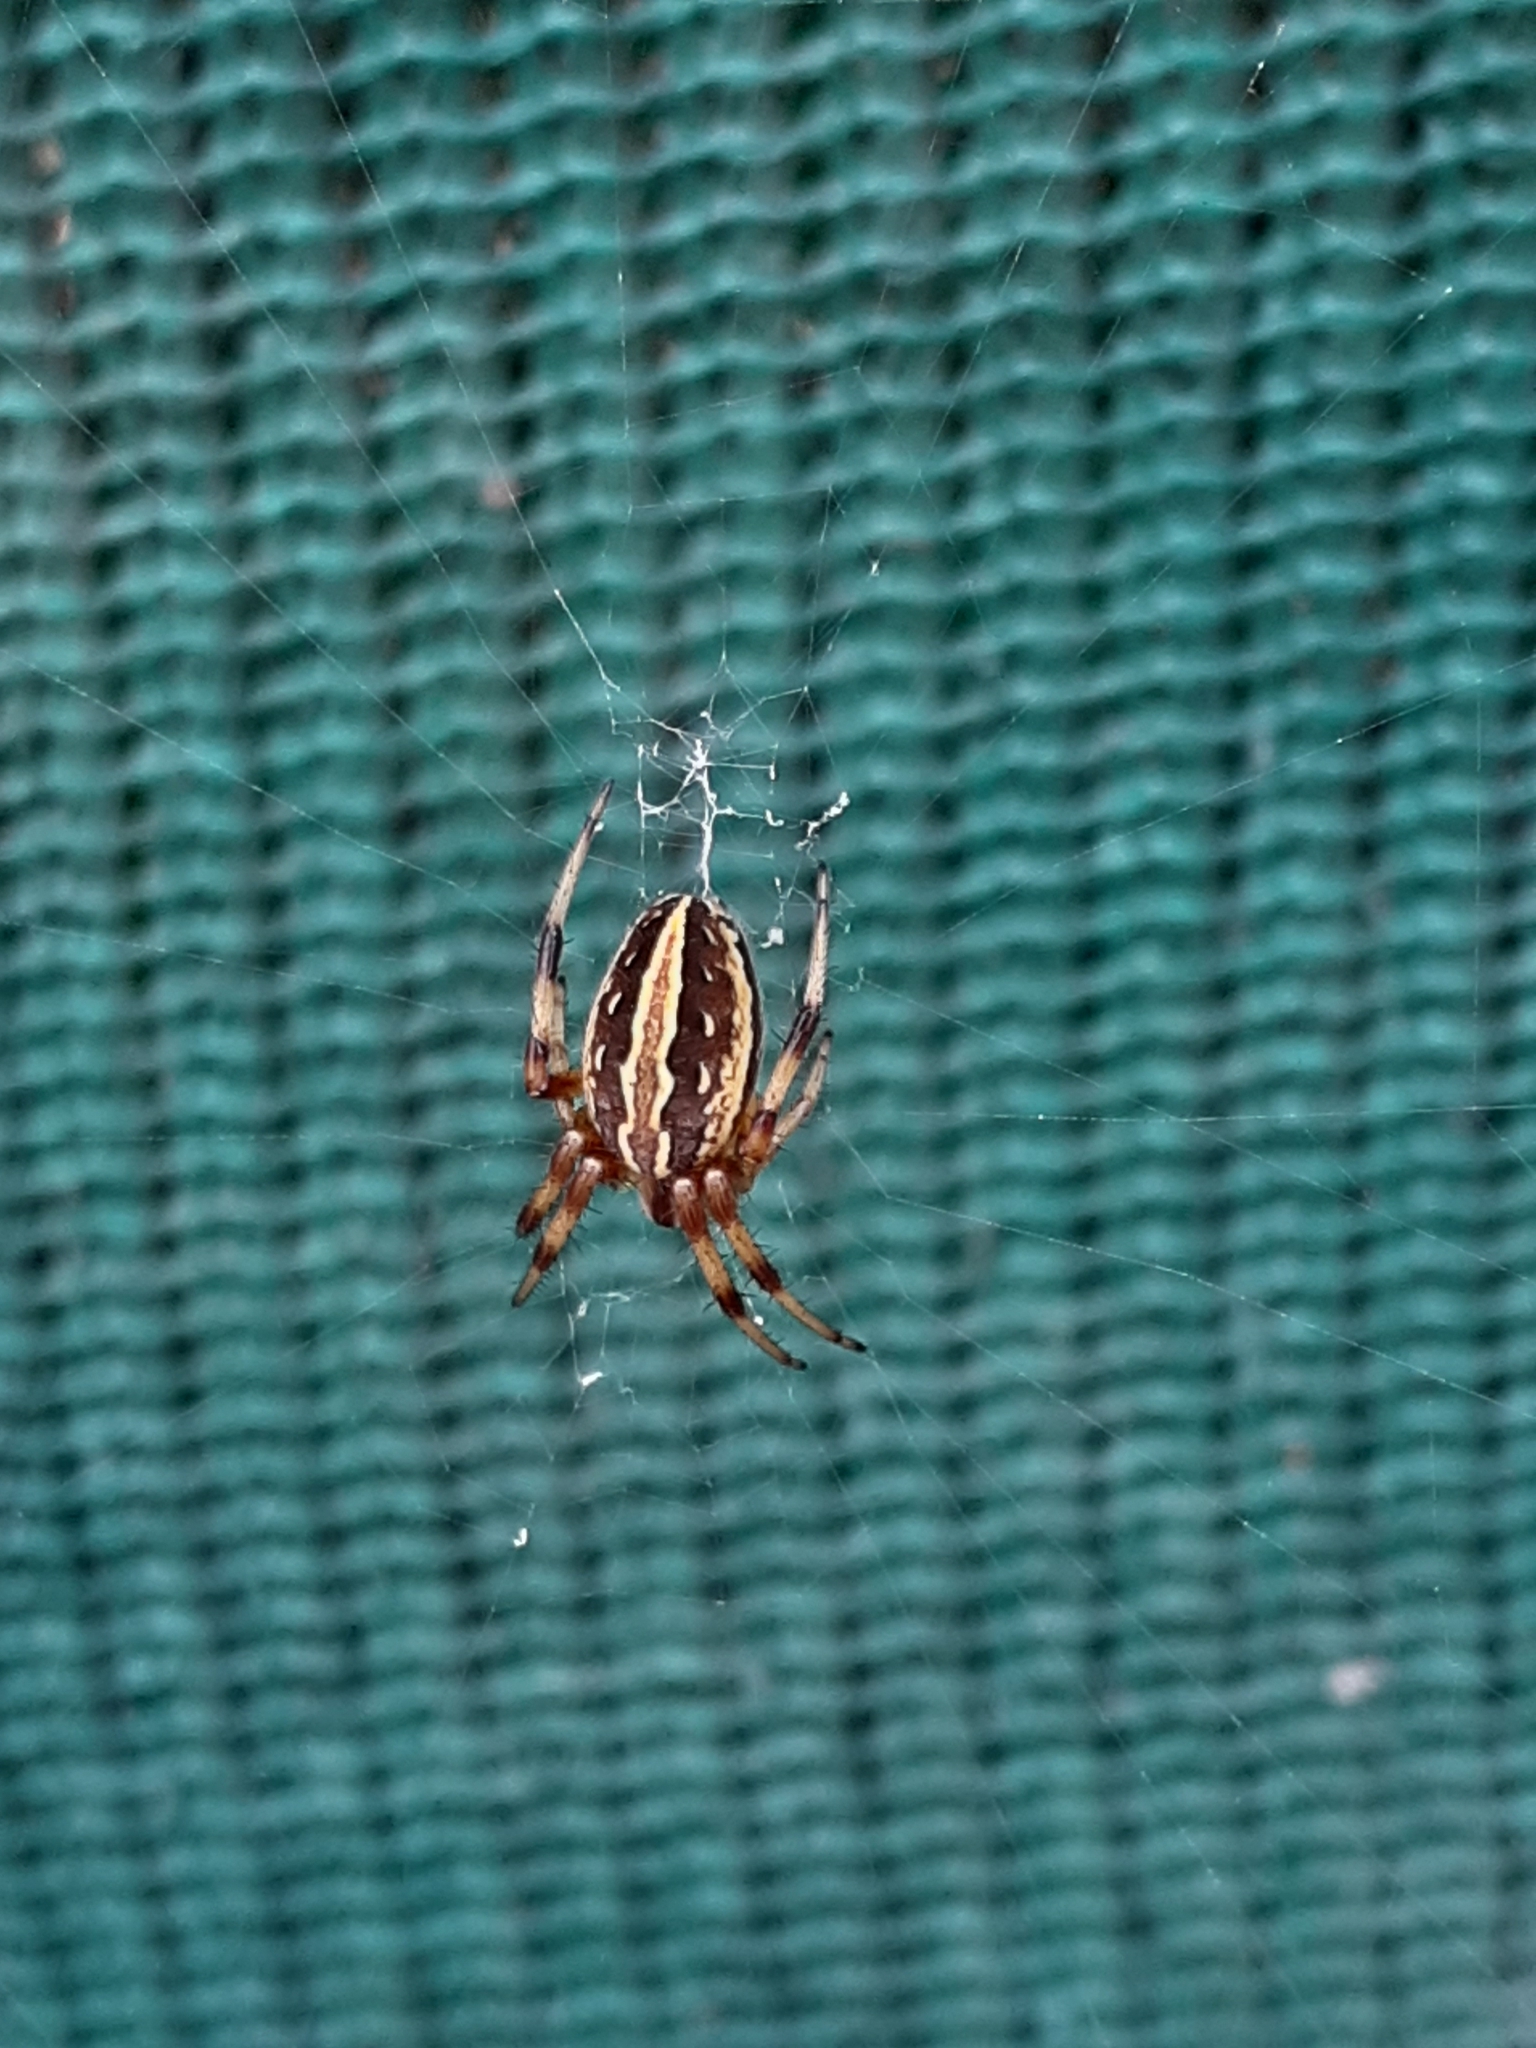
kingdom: Animalia
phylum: Arthropoda
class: Arachnida
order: Araneae
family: Araneidae
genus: Neoscona
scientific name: Neoscona moreli
